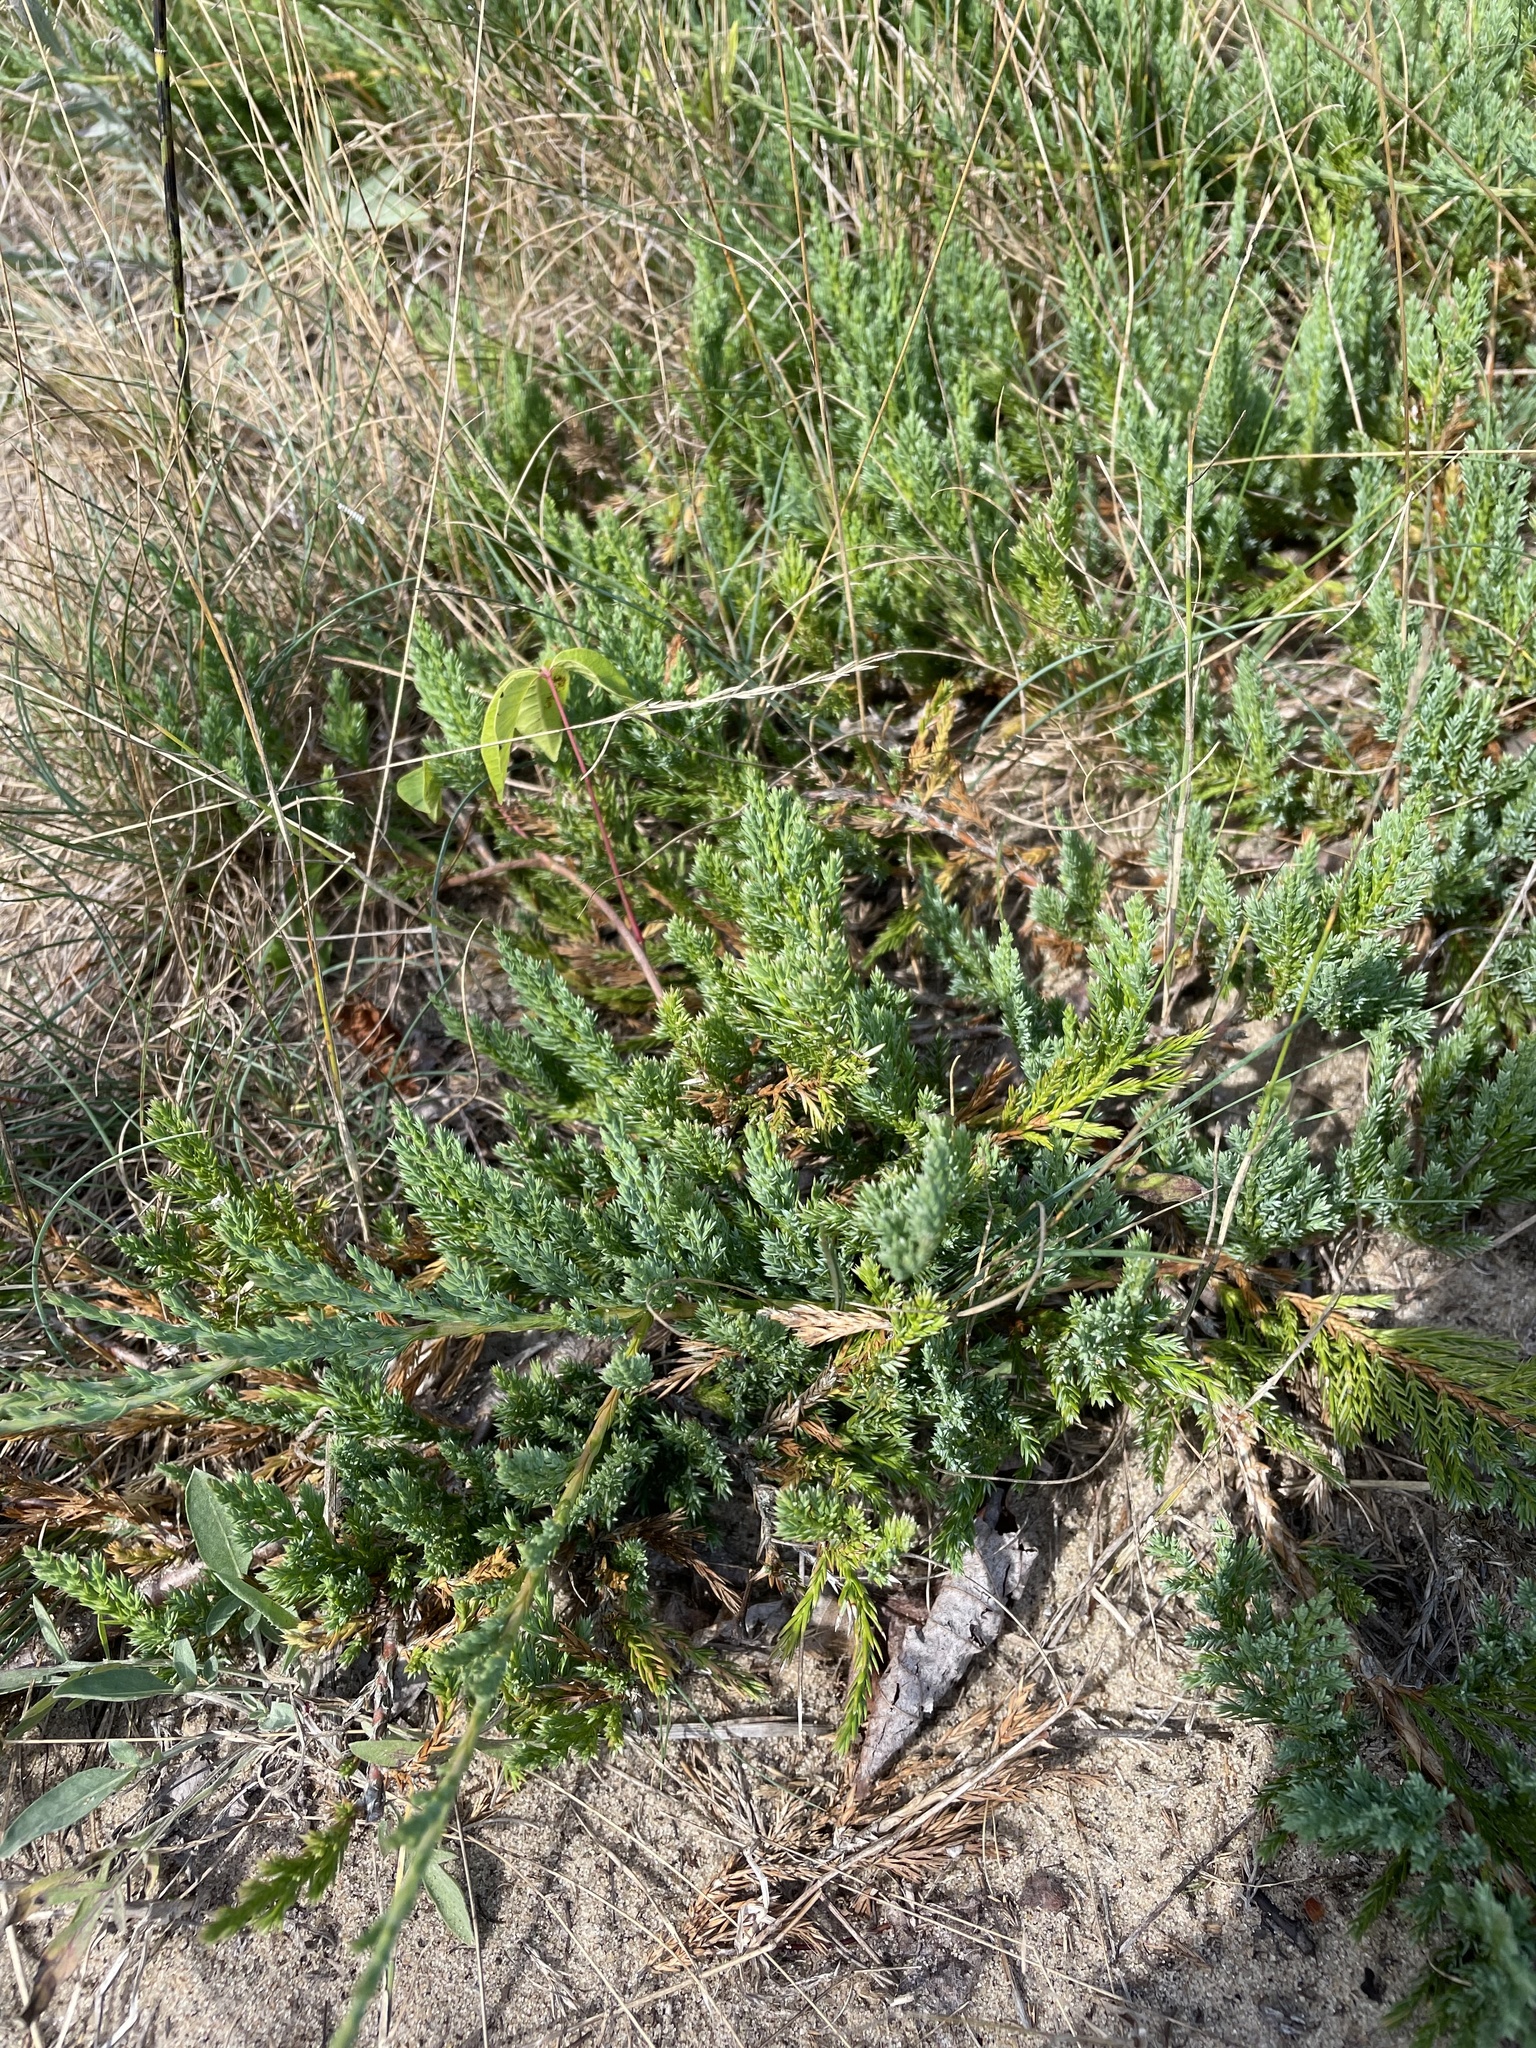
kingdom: Plantae
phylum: Tracheophyta
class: Pinopsida
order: Pinales
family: Cupressaceae
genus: Juniperus
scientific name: Juniperus horizontalis
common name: Creeping juniper
